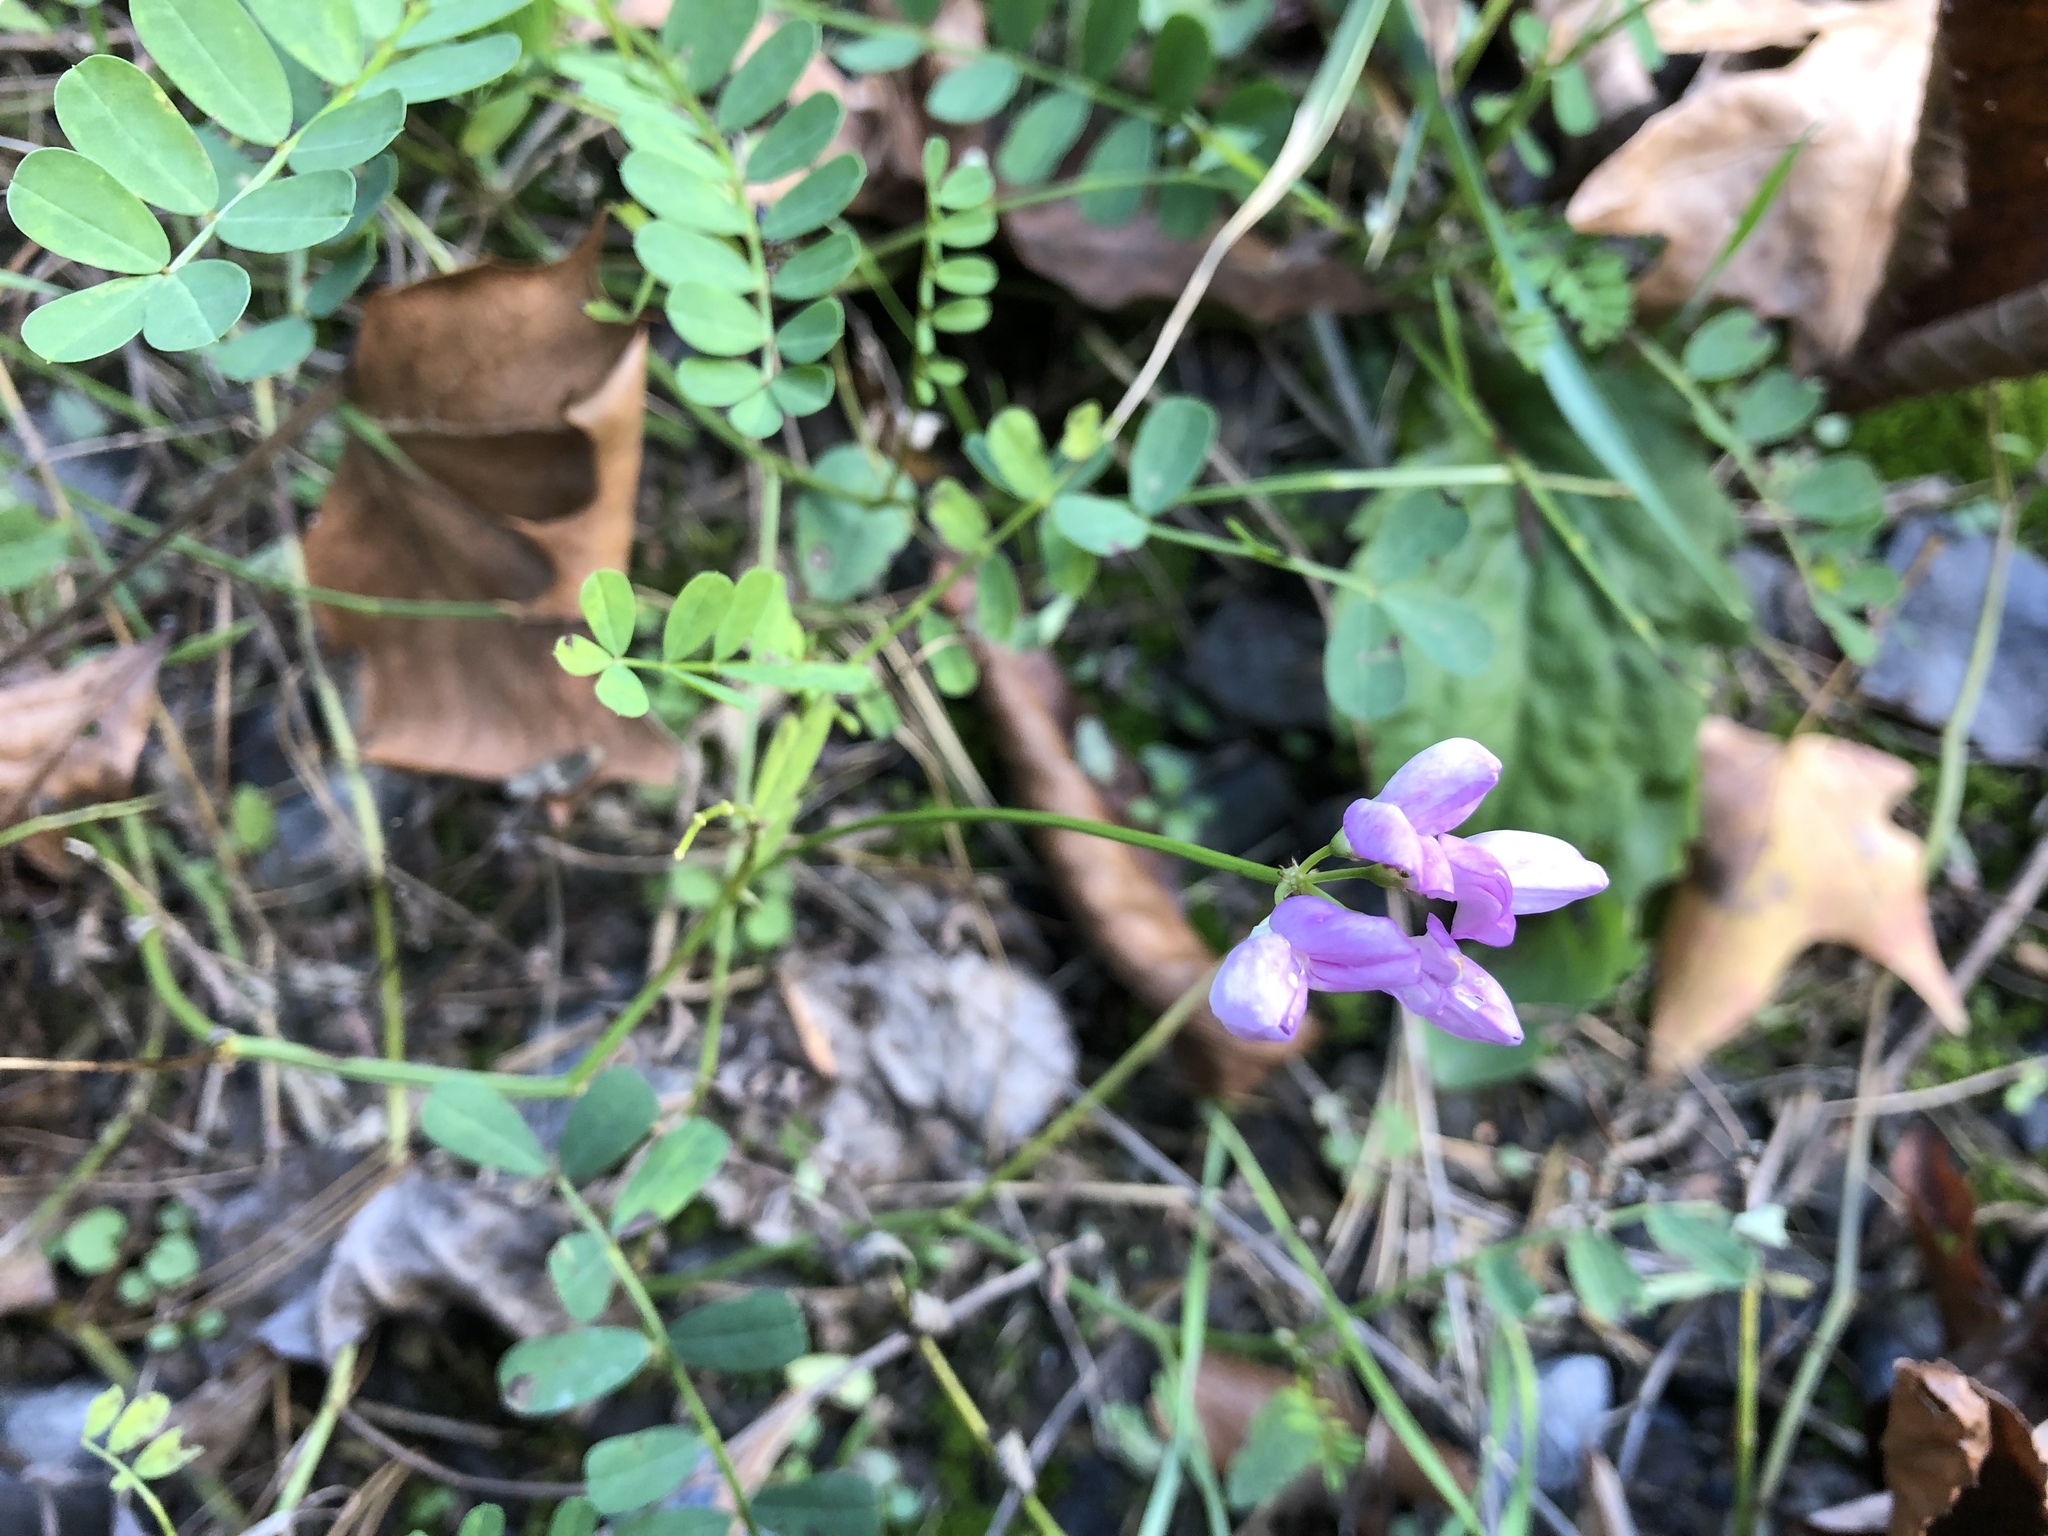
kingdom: Plantae
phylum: Tracheophyta
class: Magnoliopsida
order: Fabales
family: Fabaceae
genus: Coronilla
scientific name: Coronilla varia
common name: Crownvetch
